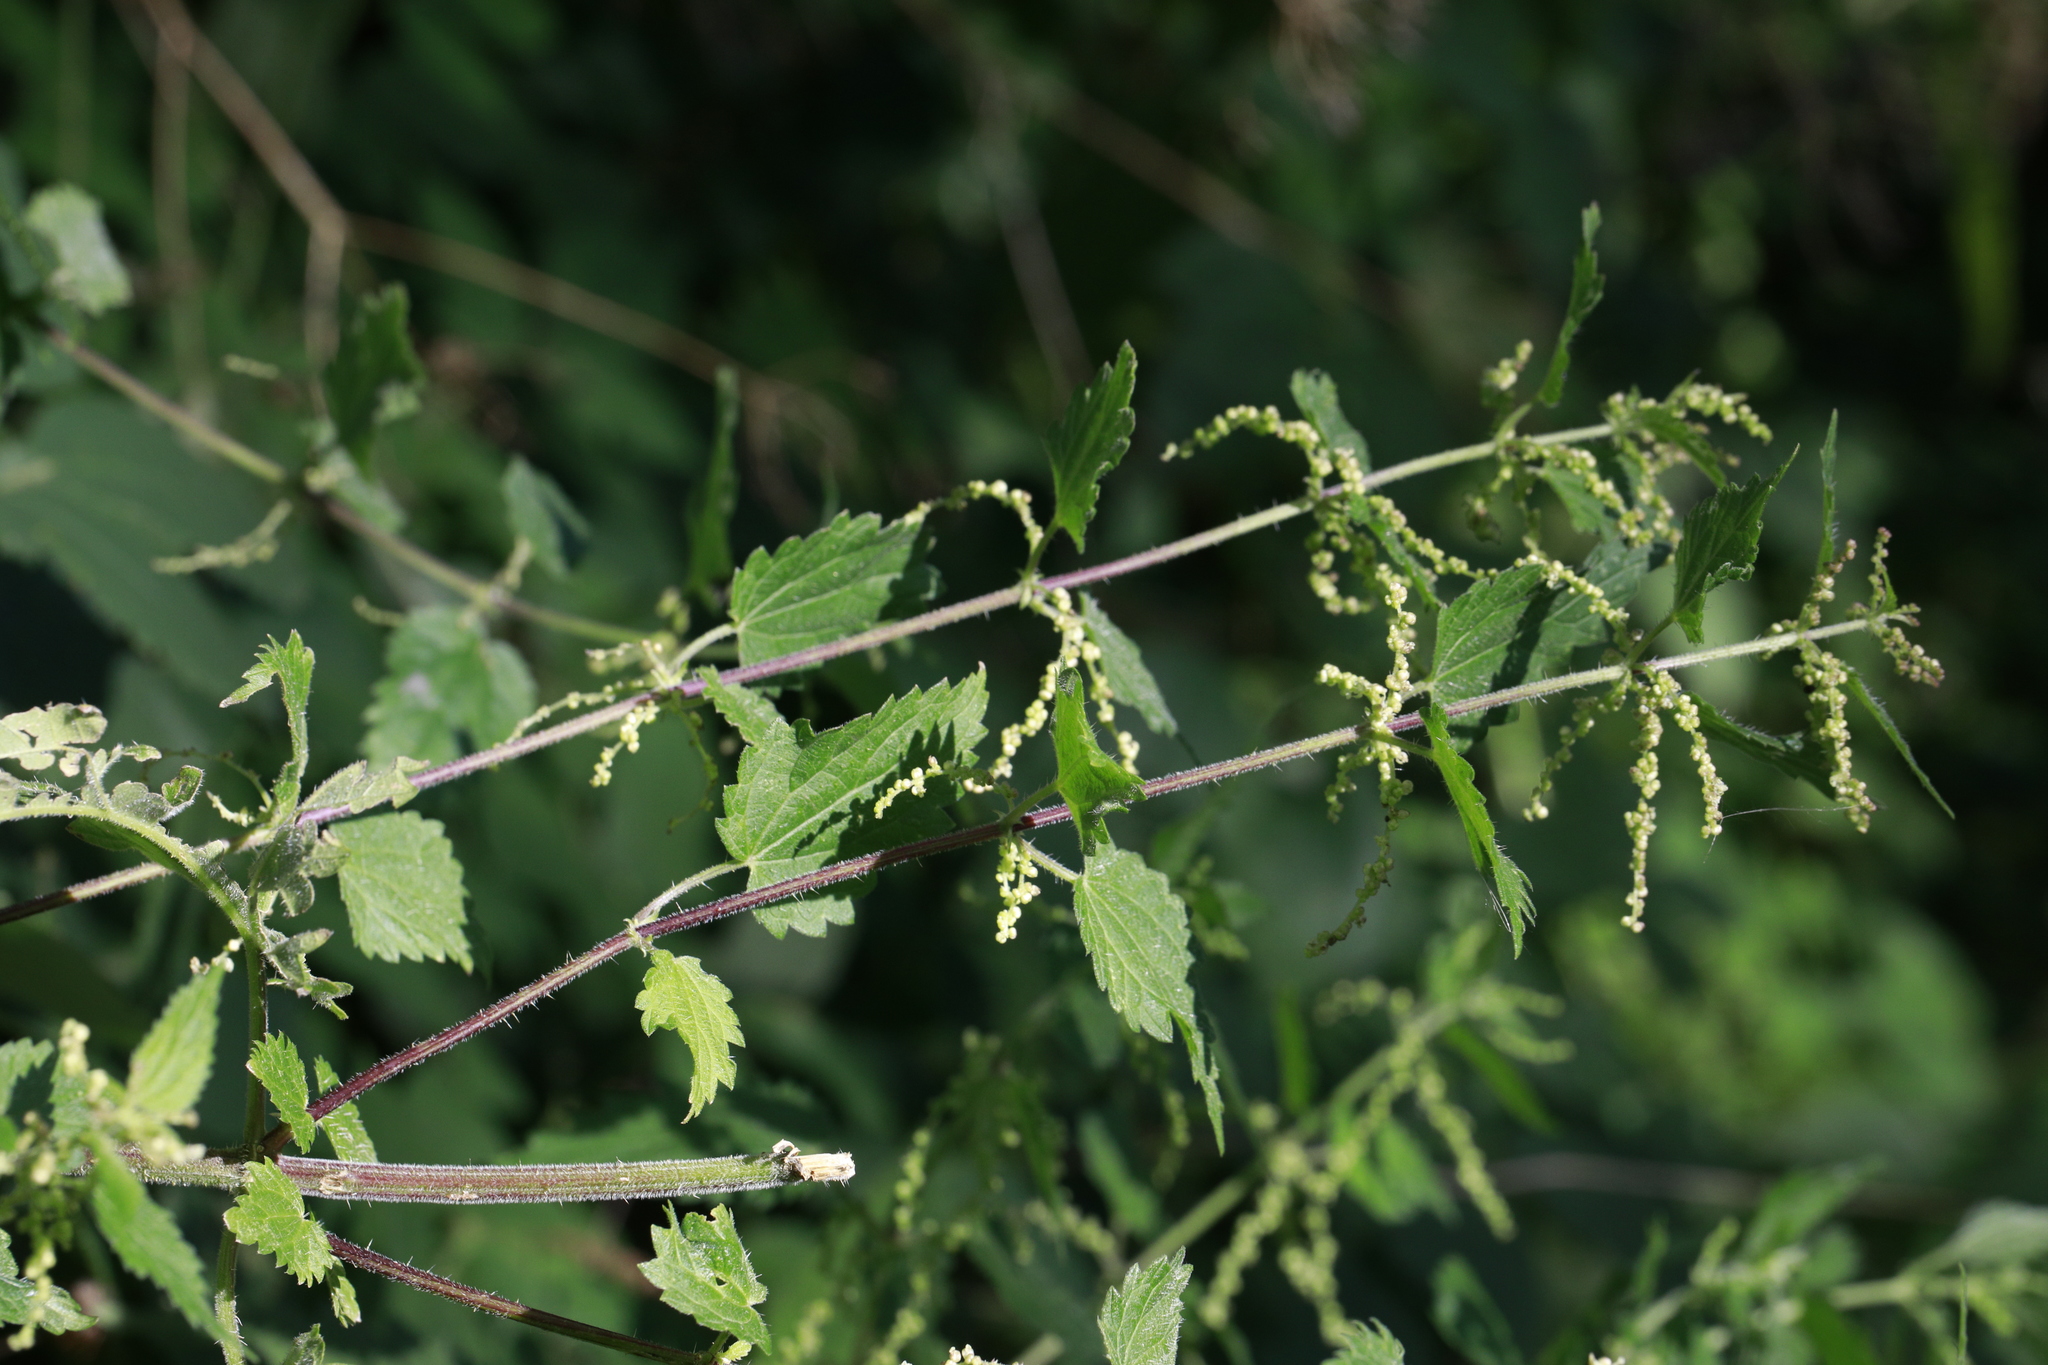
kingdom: Plantae
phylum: Tracheophyta
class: Magnoliopsida
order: Rosales
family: Urticaceae
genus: Urtica
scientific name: Urtica dioica
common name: Common nettle
